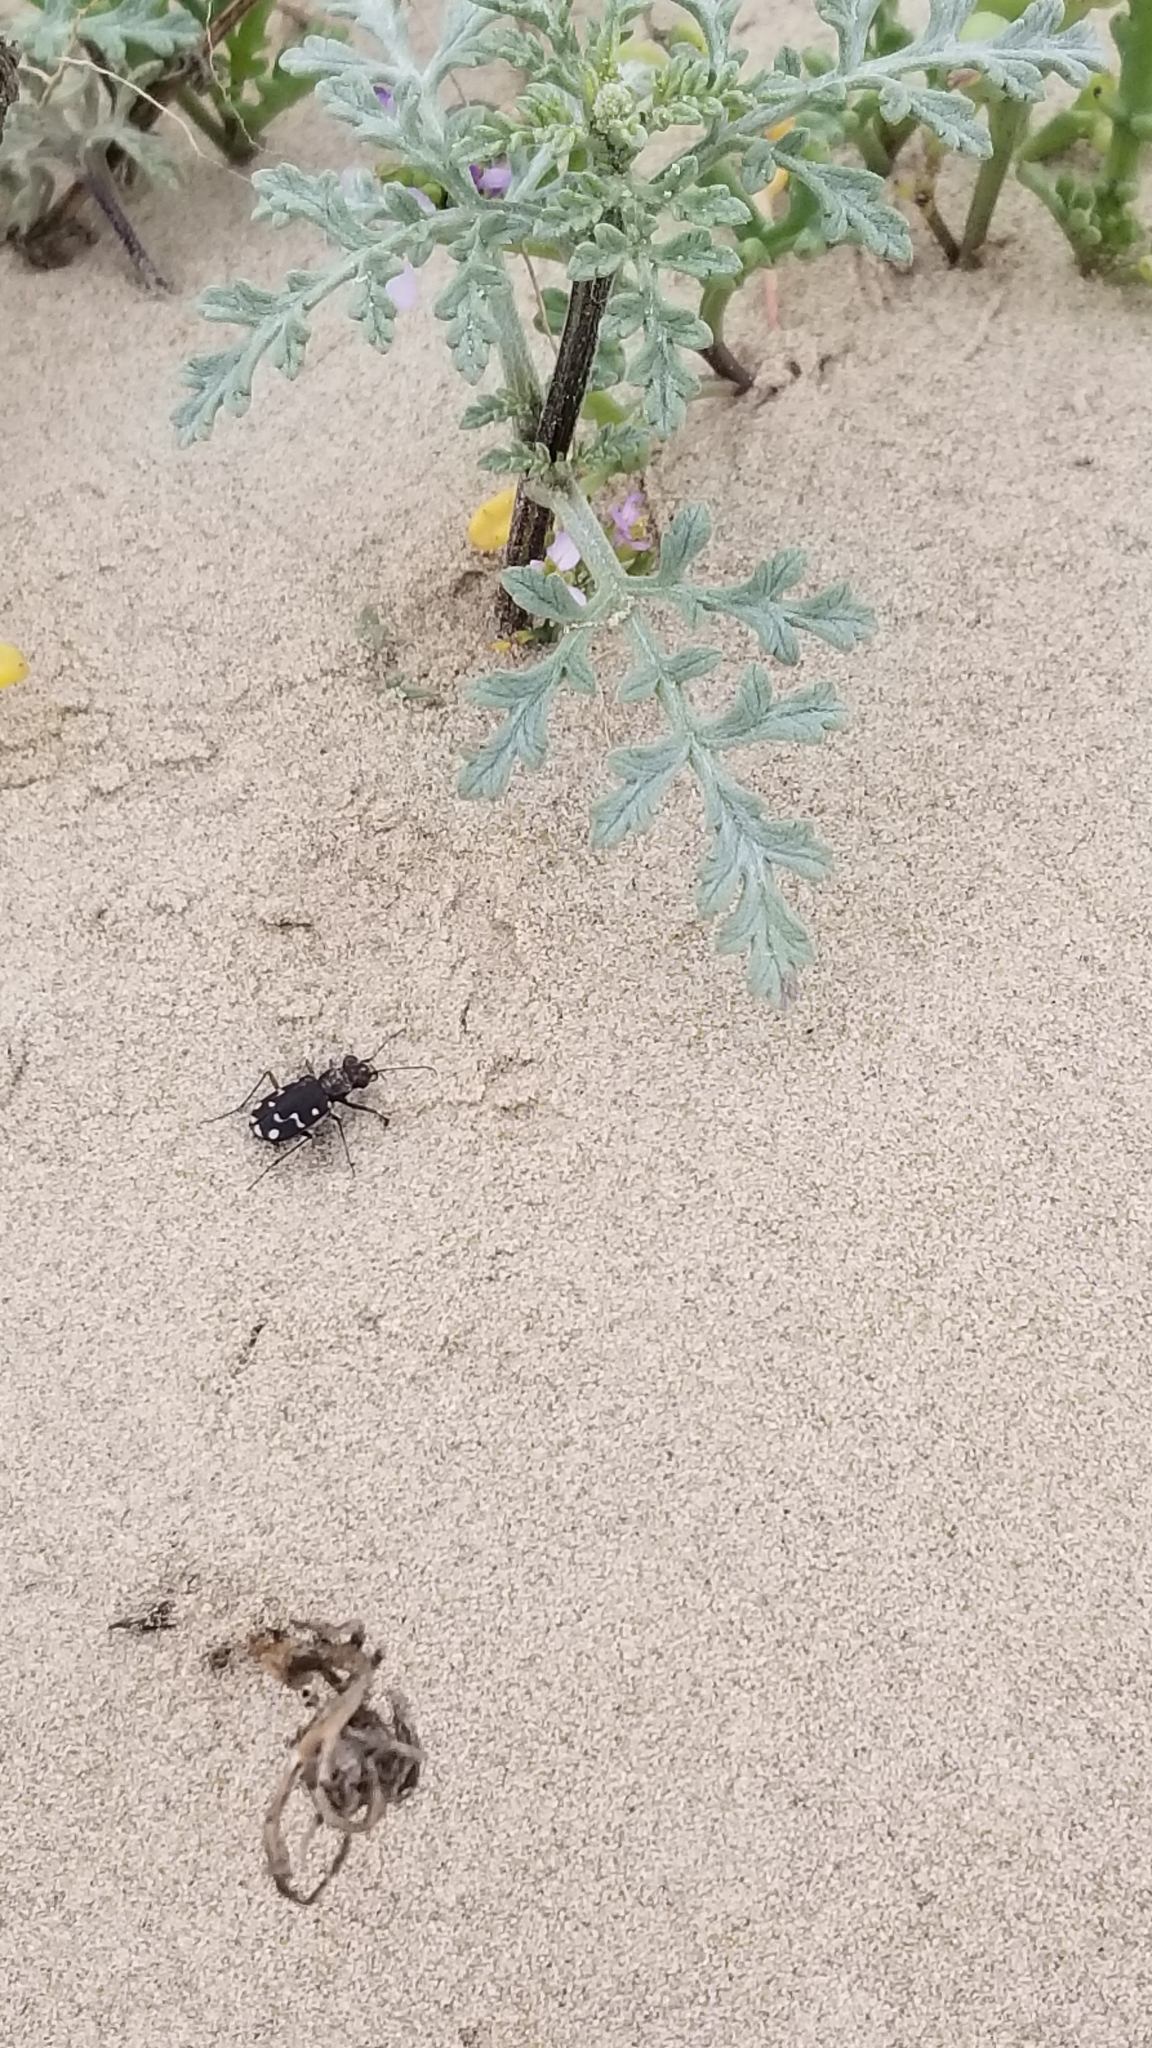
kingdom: Animalia
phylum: Arthropoda
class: Insecta
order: Coleoptera
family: Carabidae
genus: Cicindela
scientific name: Cicindela oregona
